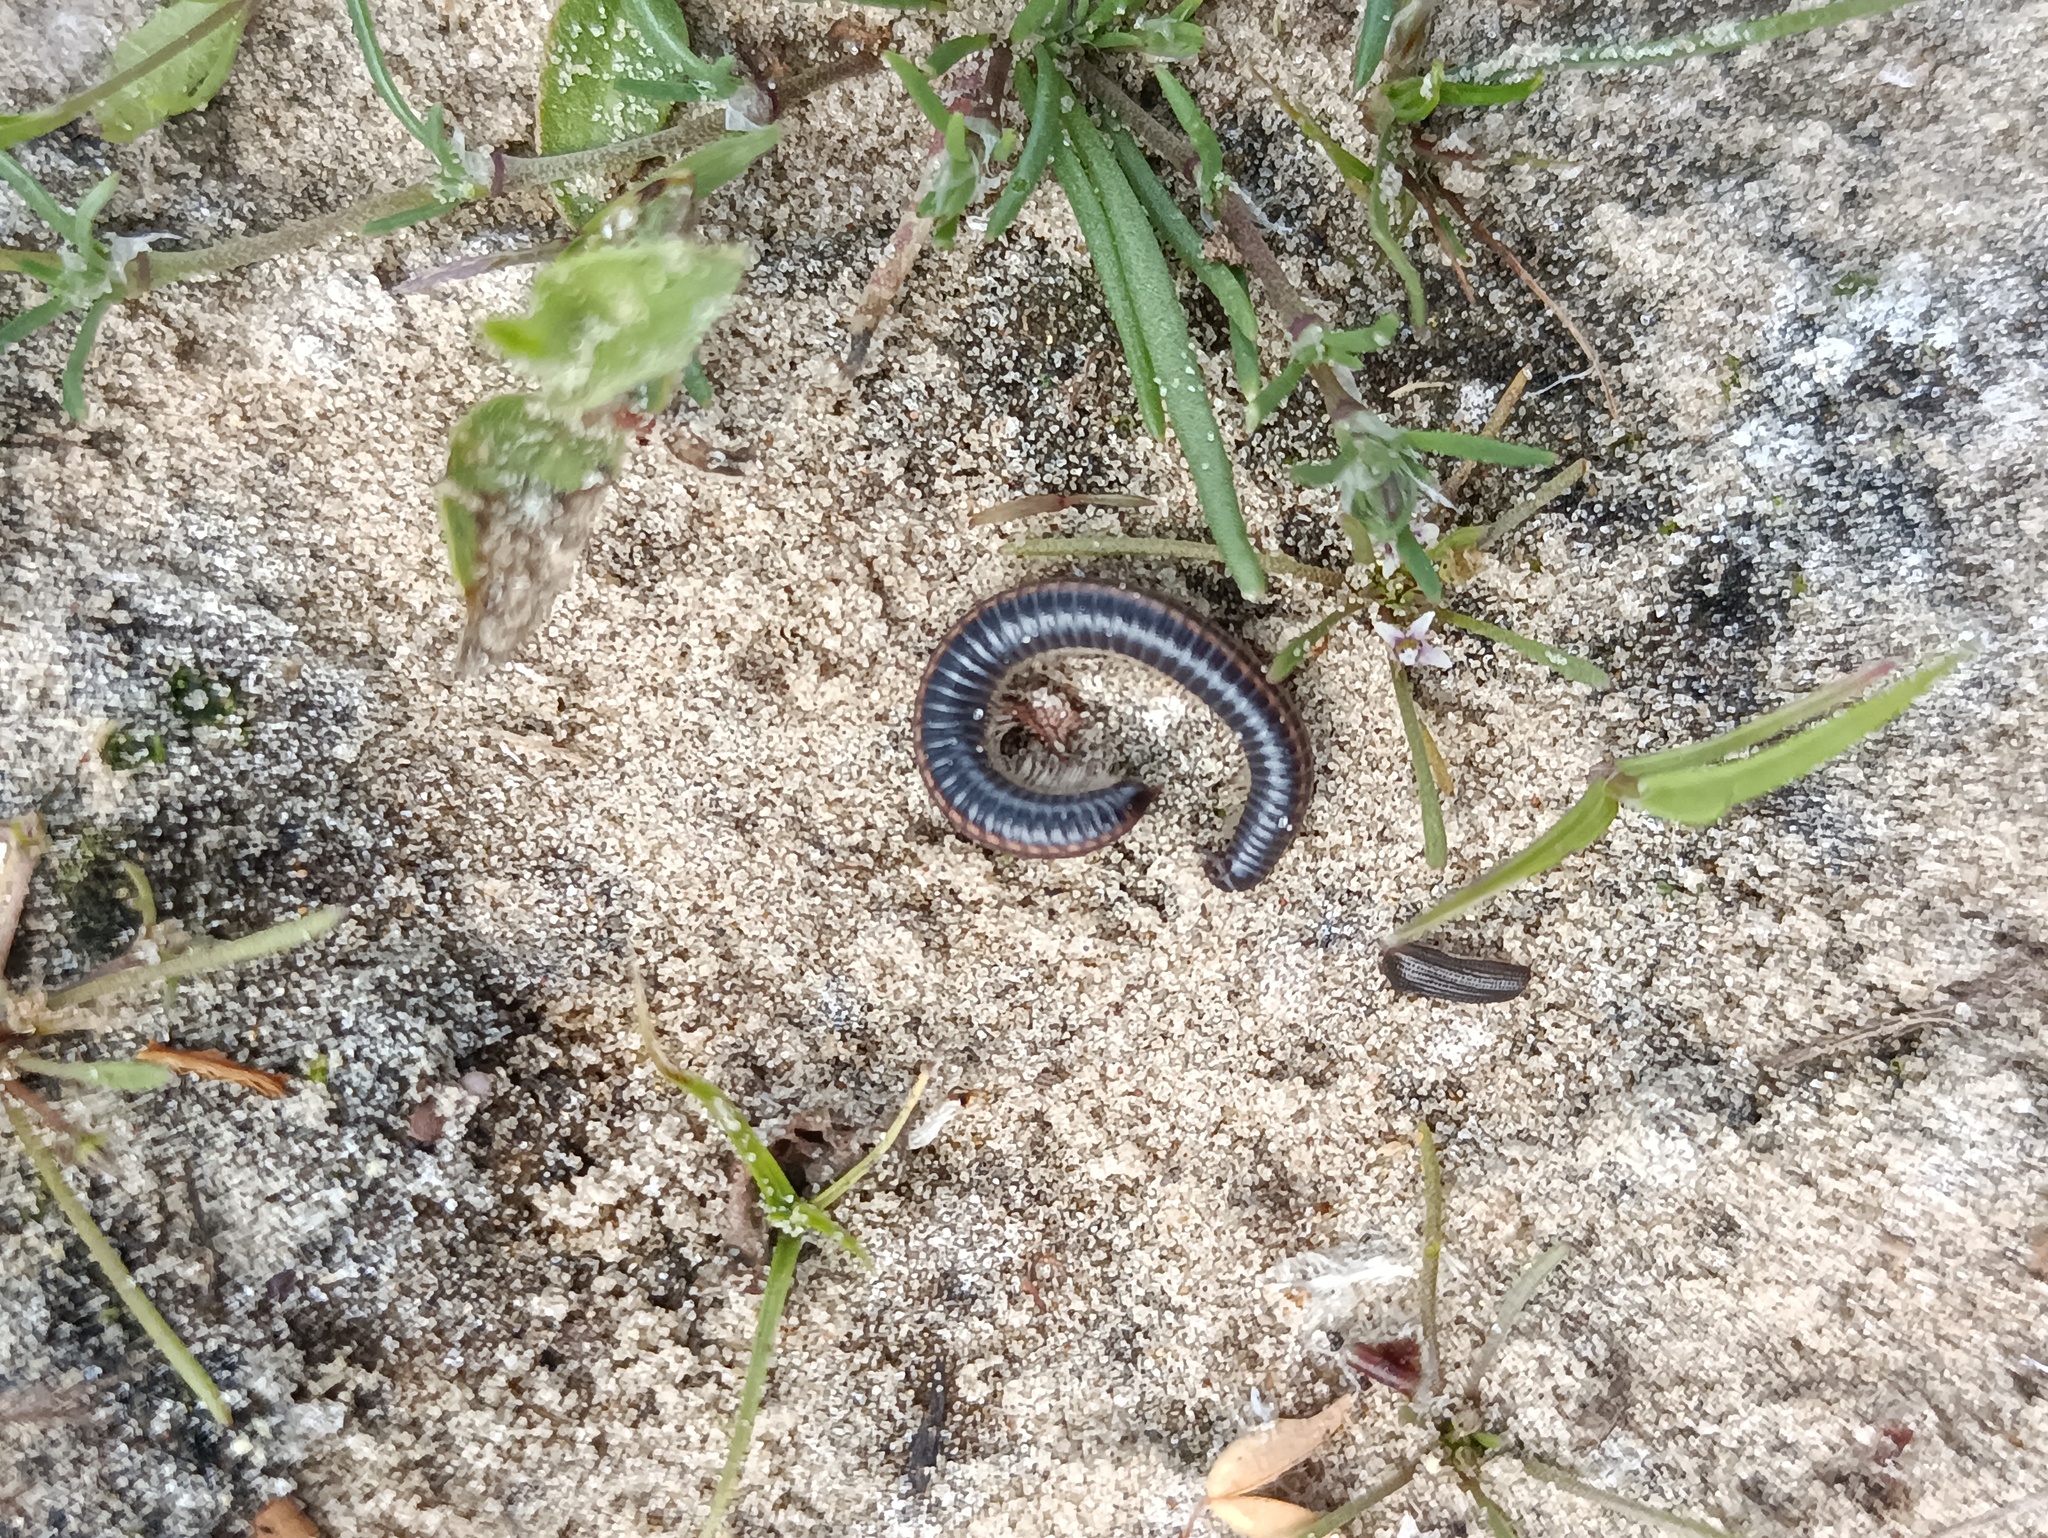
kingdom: Animalia
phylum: Arthropoda
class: Diplopoda
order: Julida
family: Julidae
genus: Ommatoiulus
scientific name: Ommatoiulus sabulosus
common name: Striped millipede
